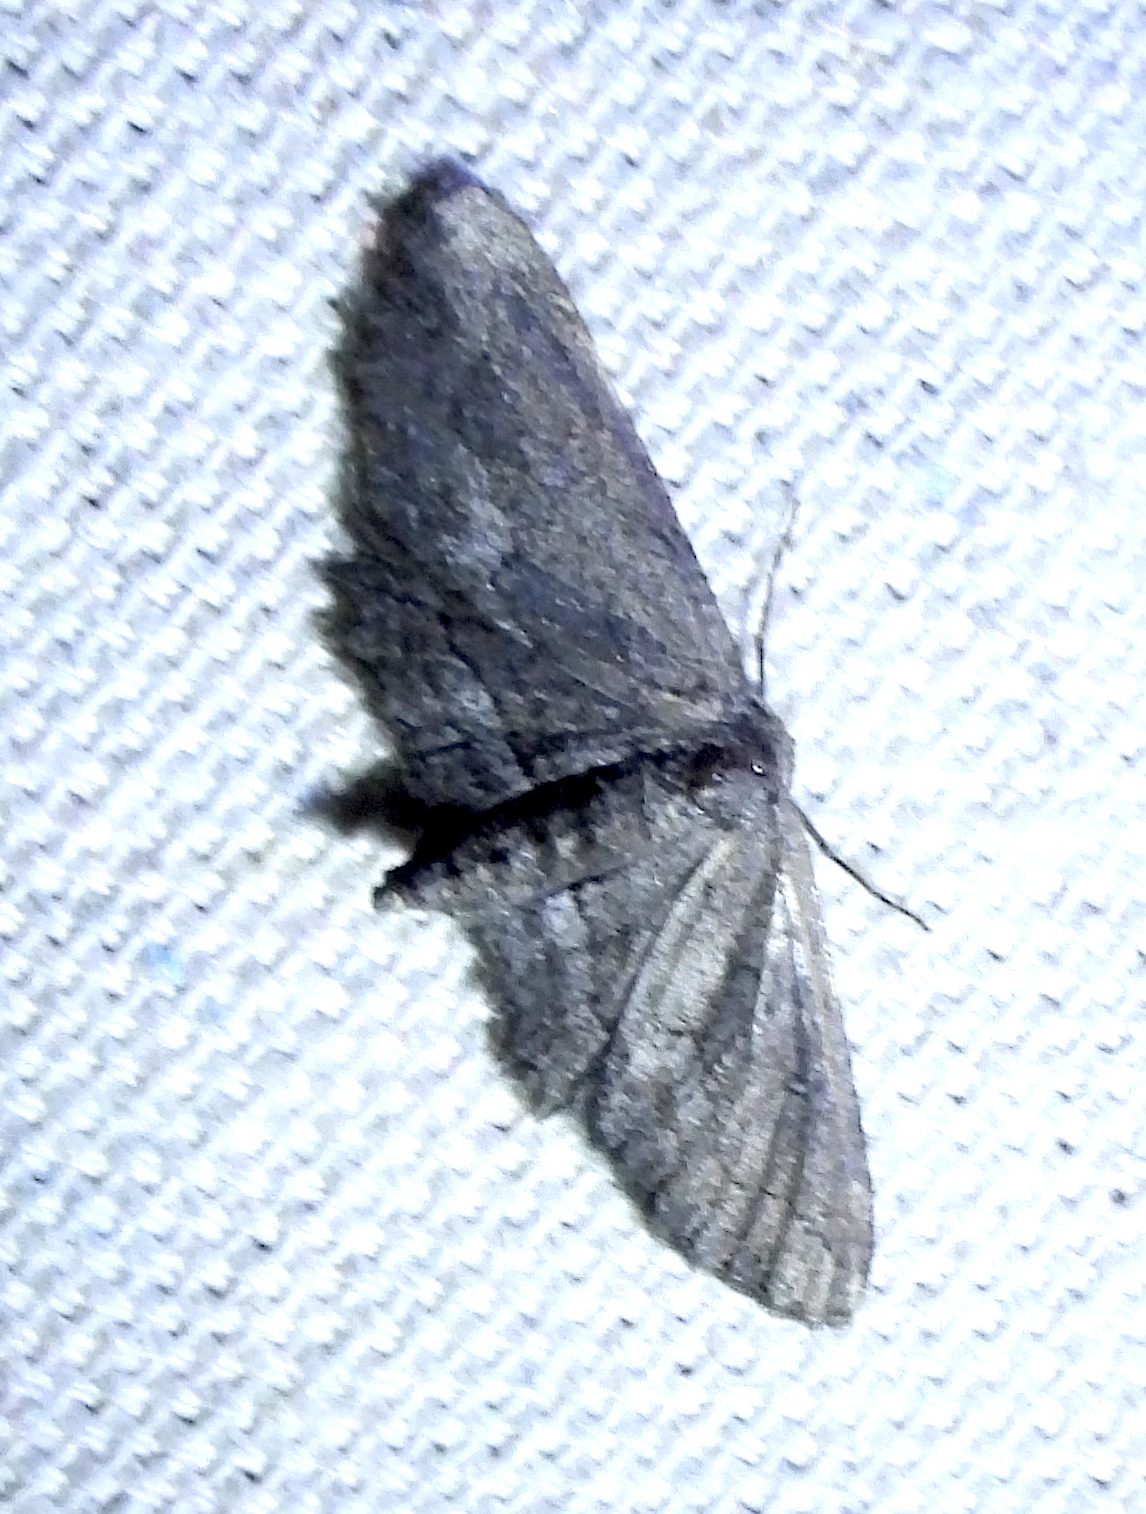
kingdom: Animalia
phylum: Arthropoda
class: Insecta
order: Lepidoptera
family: Geometridae
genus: Aethaloida
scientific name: Aethaloida packardaria
